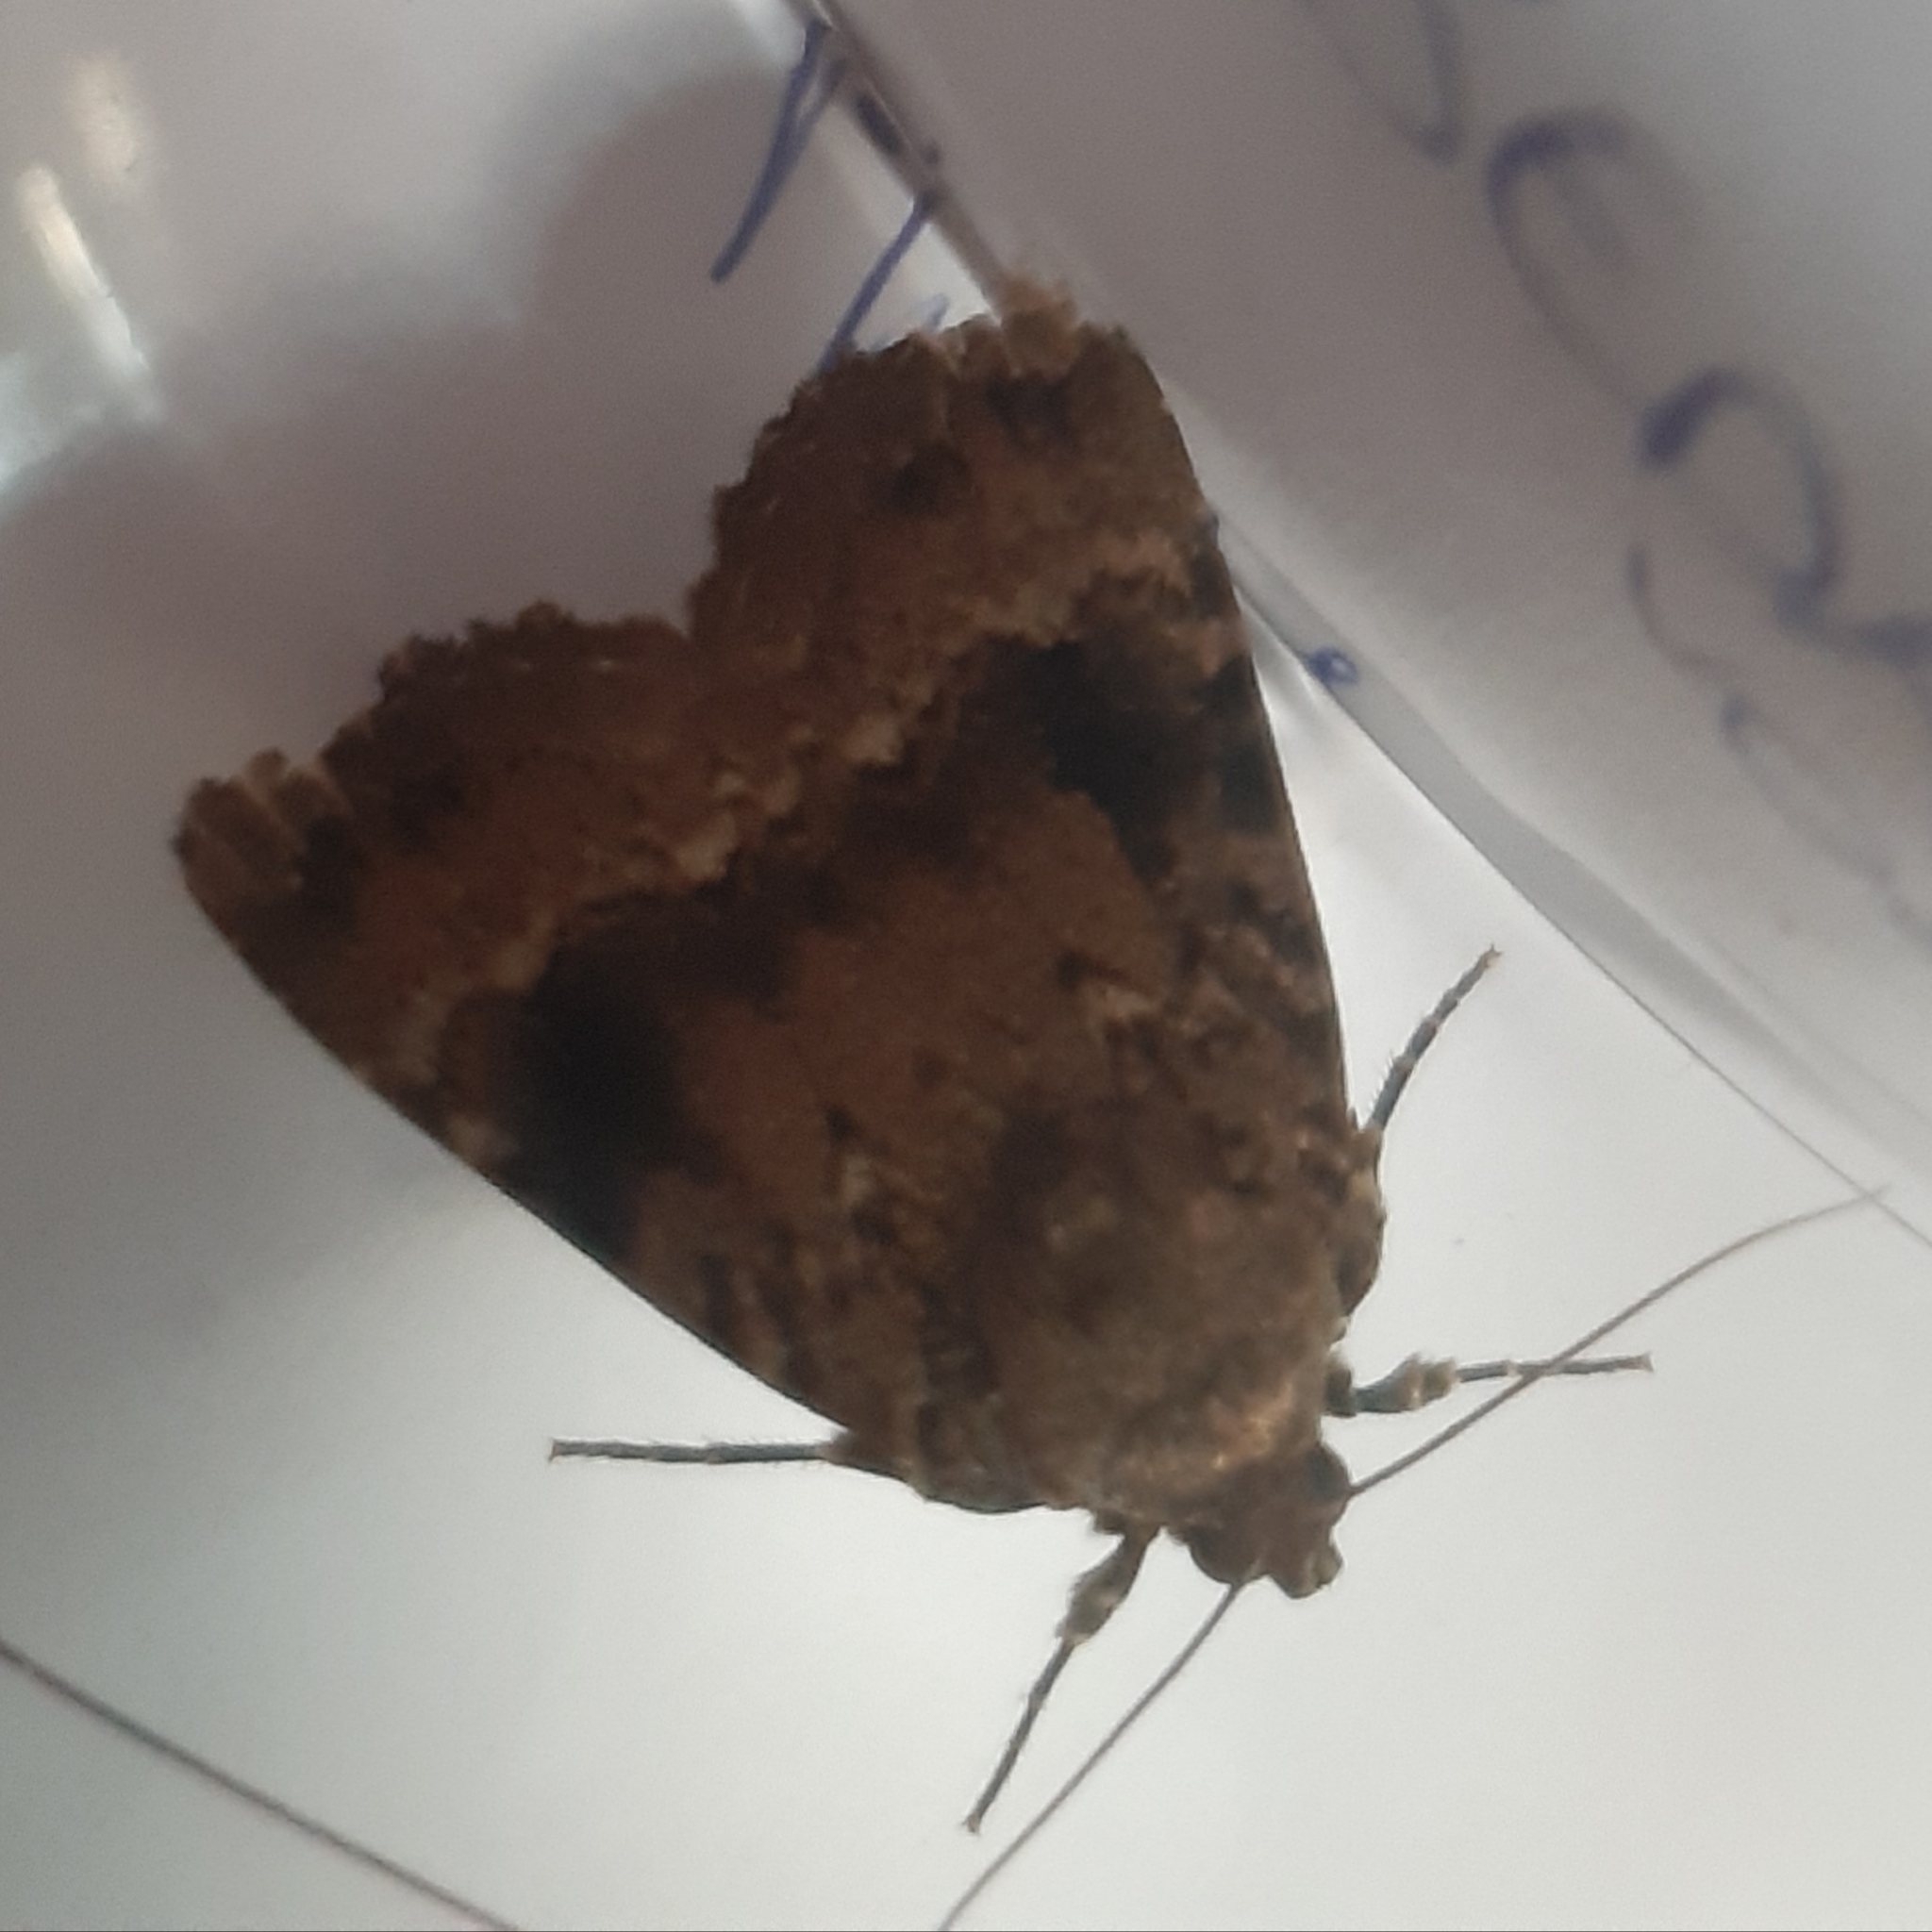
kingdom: Animalia
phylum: Arthropoda
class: Insecta
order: Lepidoptera
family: Noctuidae
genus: Amphipyra
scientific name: Amphipyra pyramidea
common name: Copper underwing
